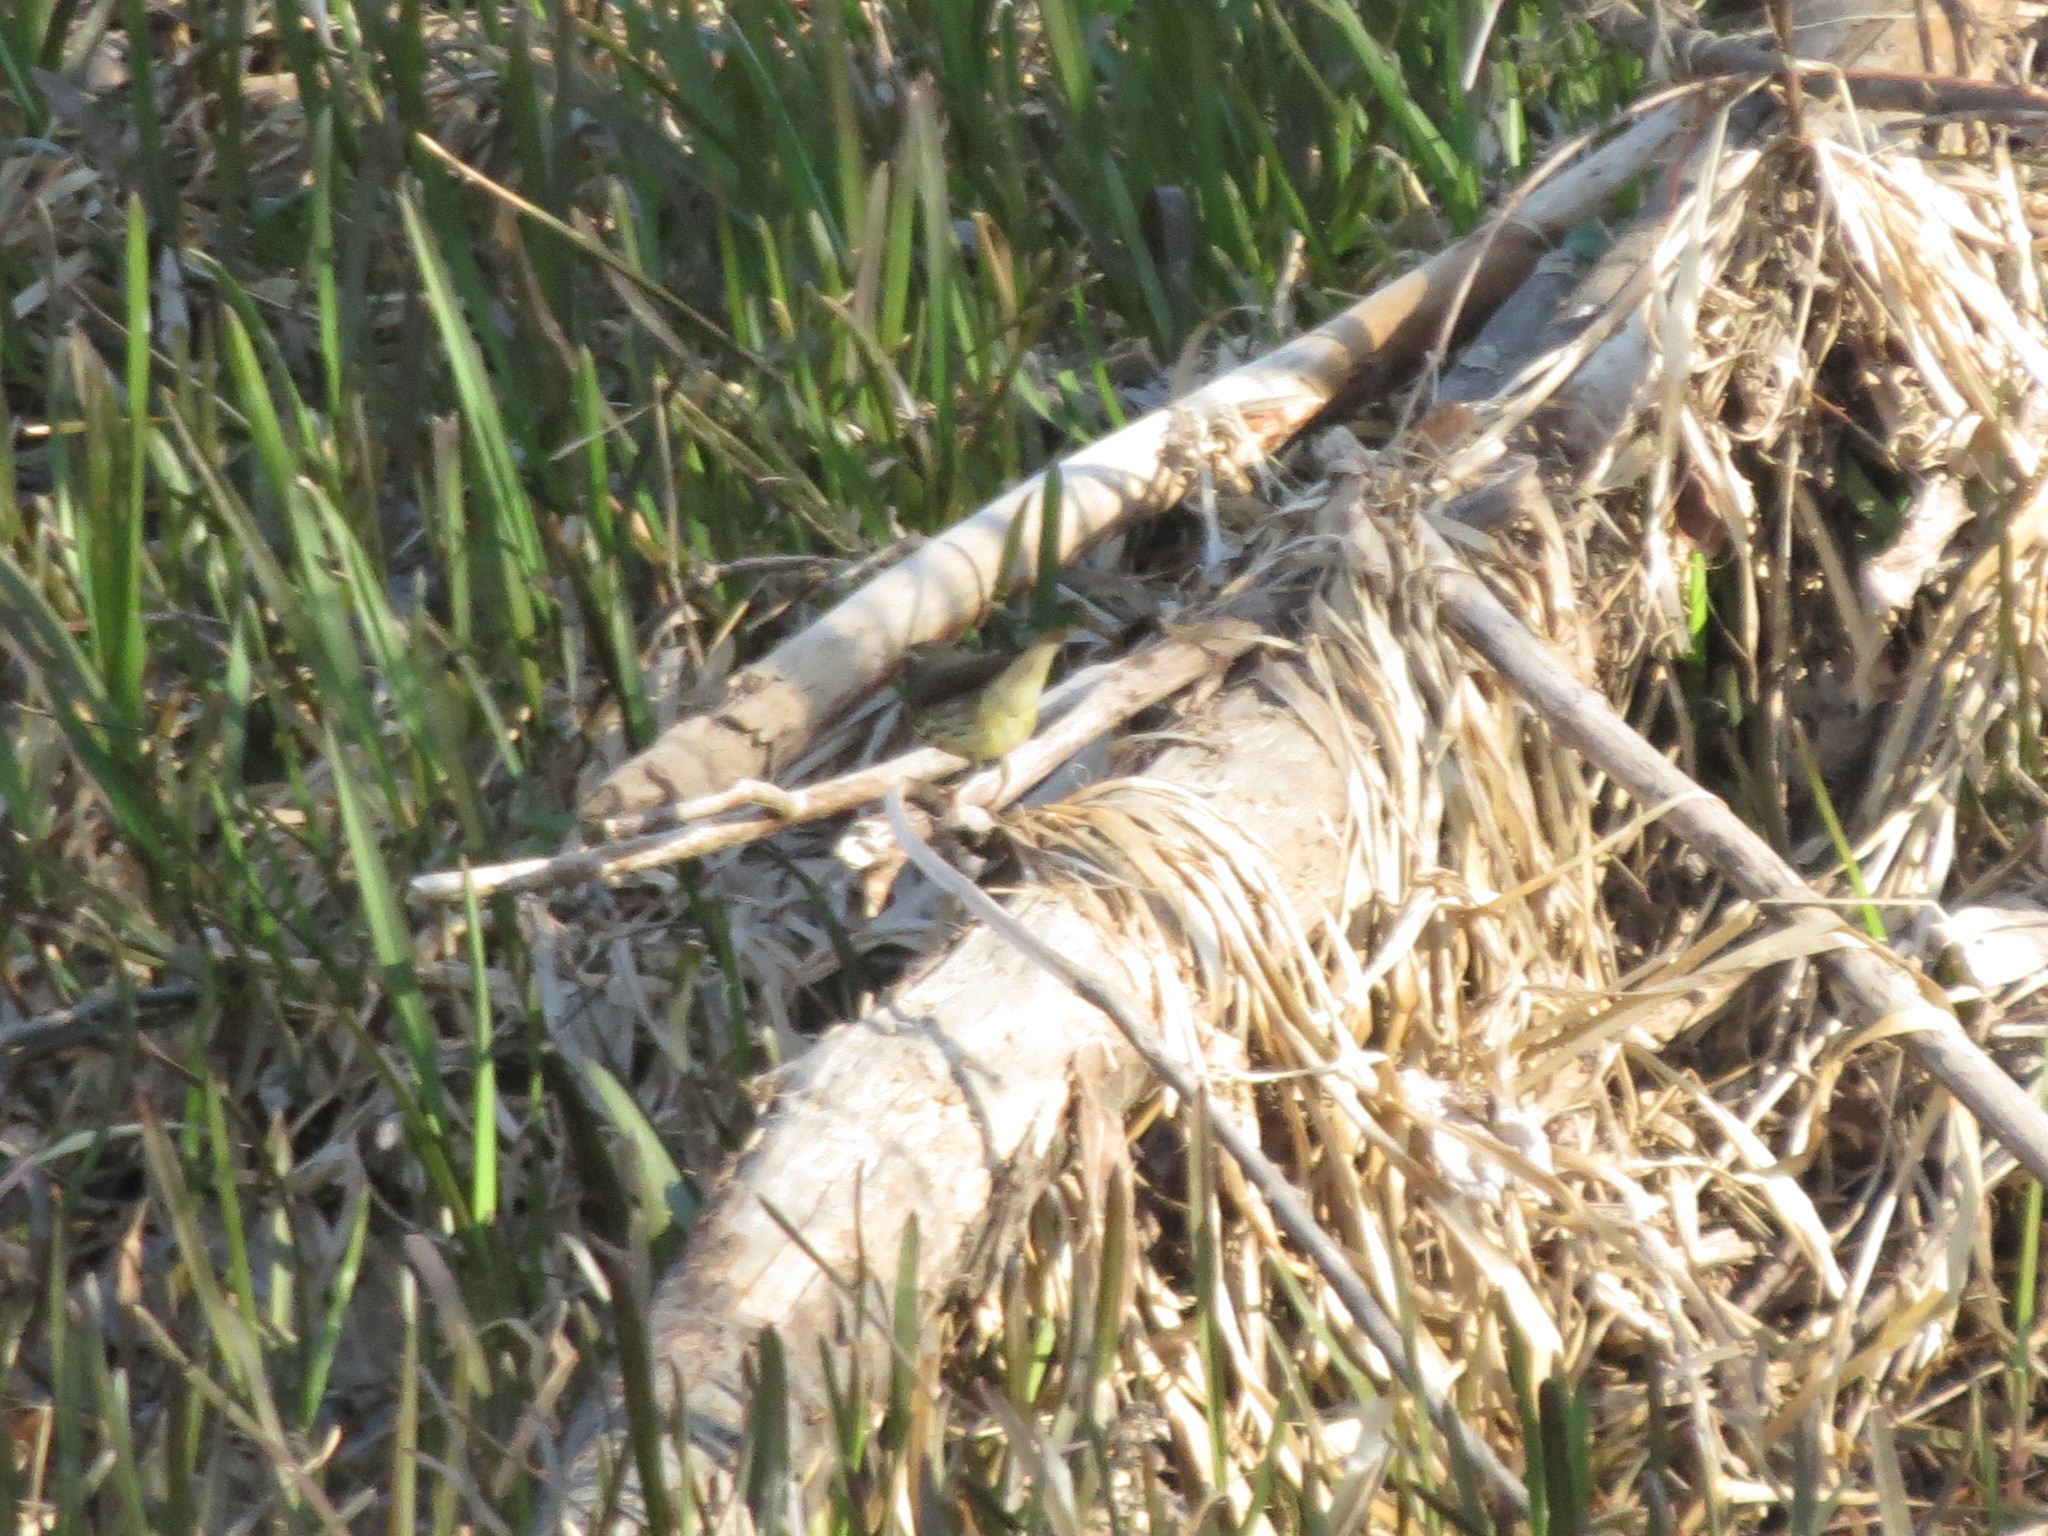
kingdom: Animalia
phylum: Chordata
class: Aves
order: Passeriformes
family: Parulidae
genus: Parkesia
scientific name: Parkesia noveboracensis
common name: Northern waterthrush
